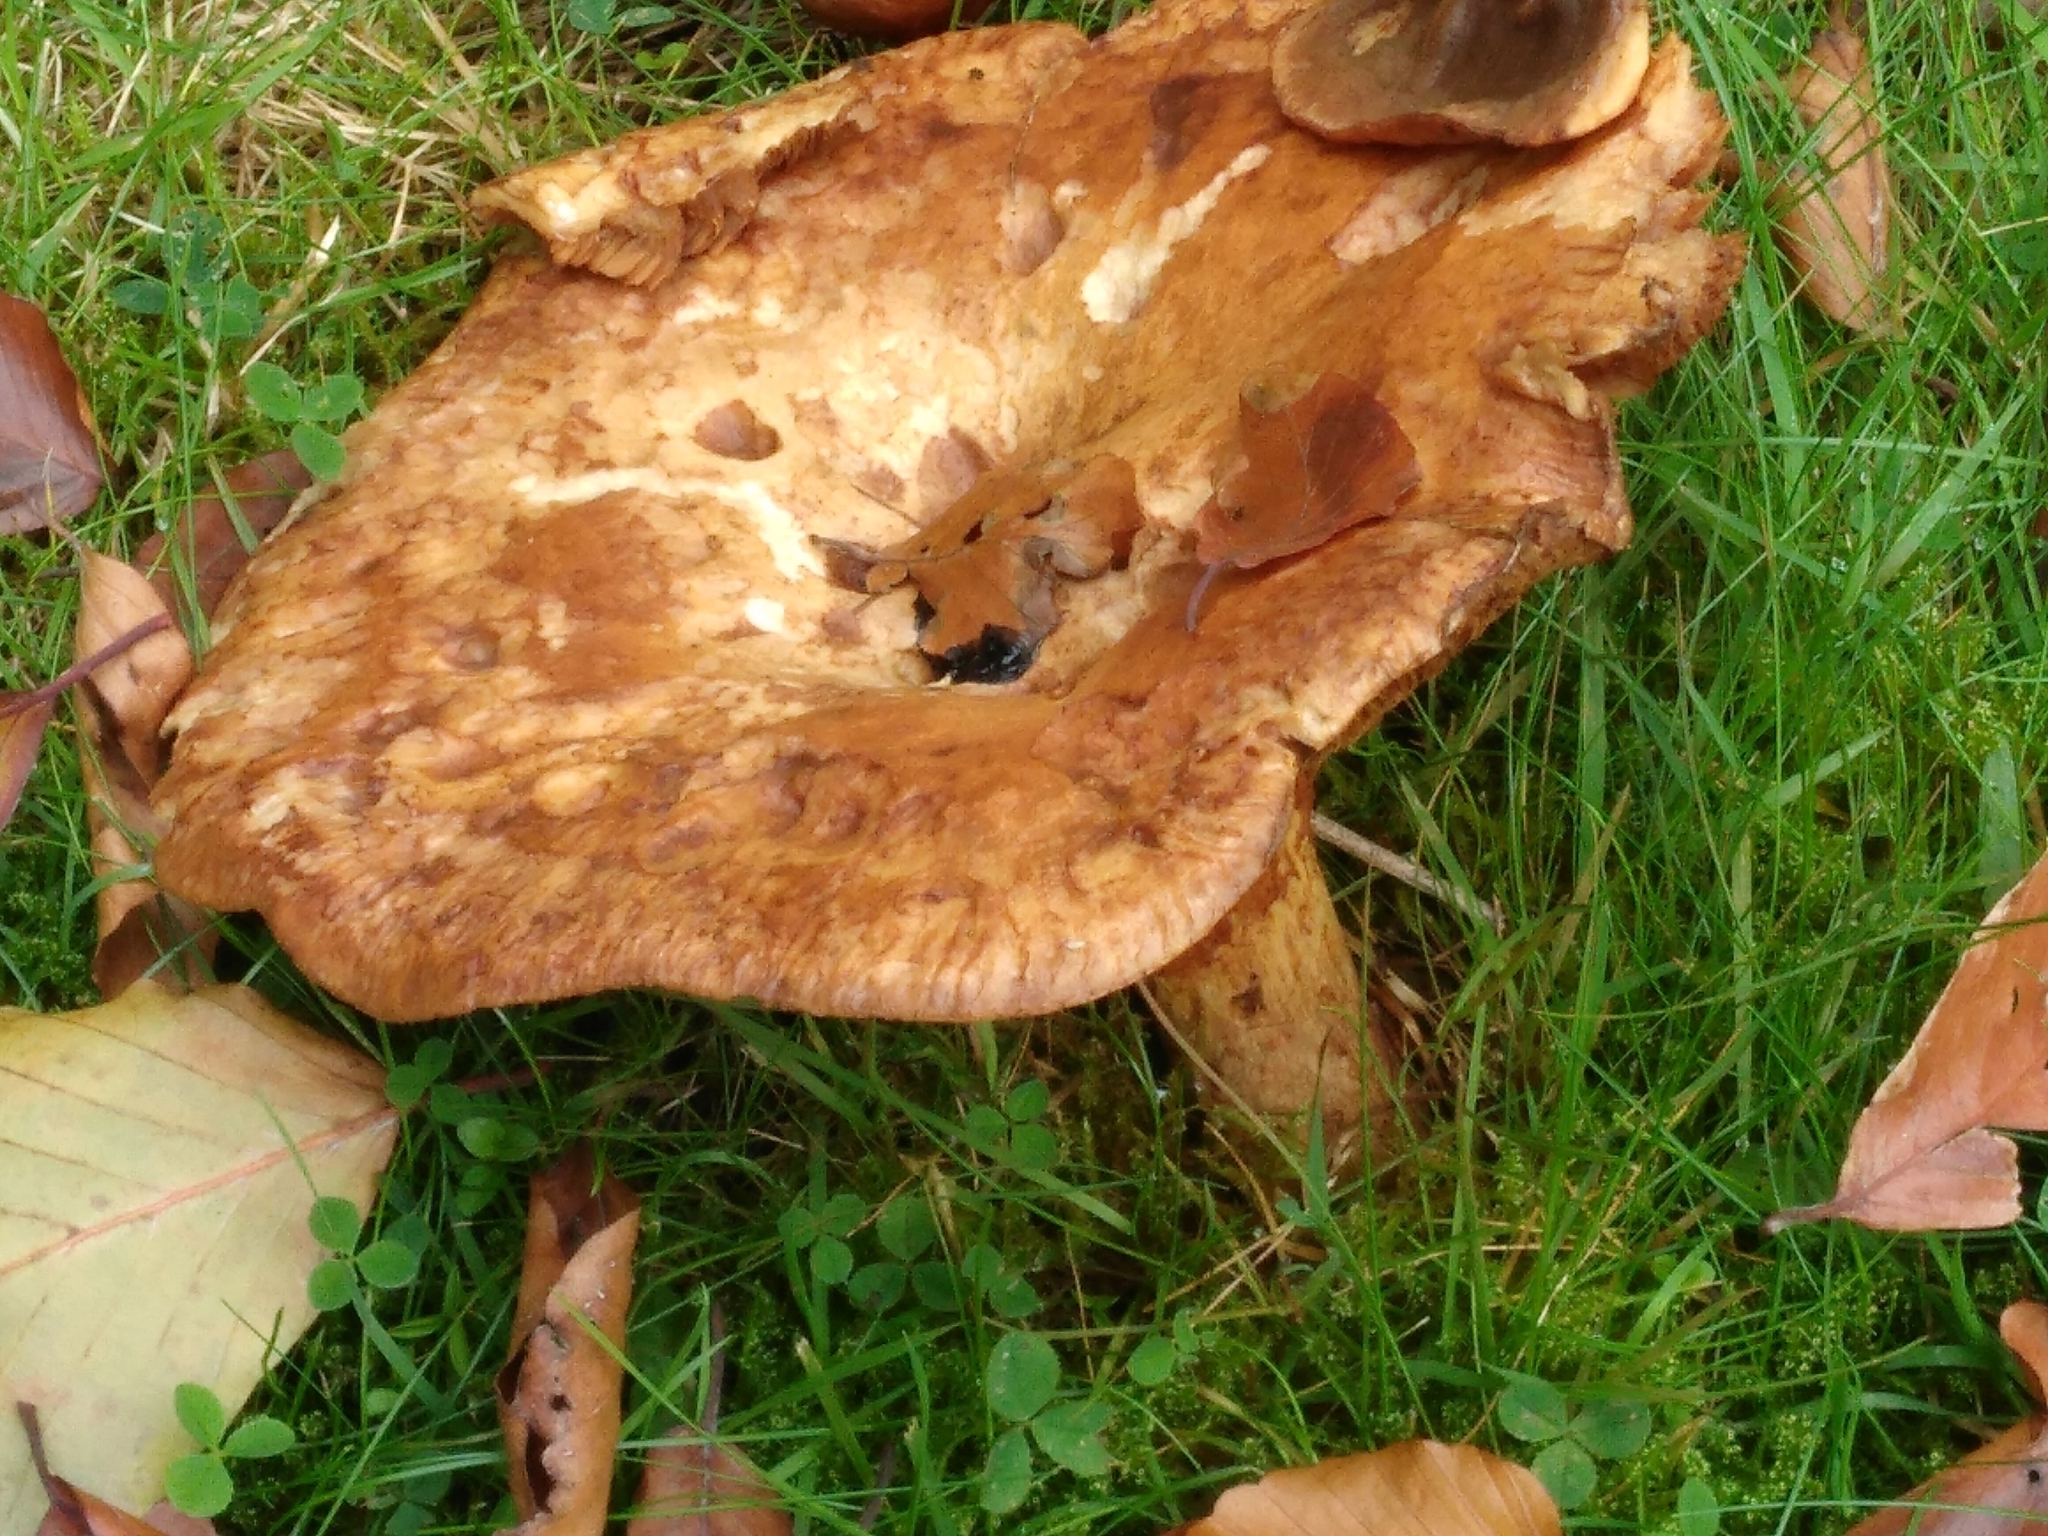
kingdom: Fungi
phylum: Basidiomycota
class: Agaricomycetes
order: Boletales
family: Paxillaceae
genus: Paxillus
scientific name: Paxillus involutus
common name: Brown roll rim
